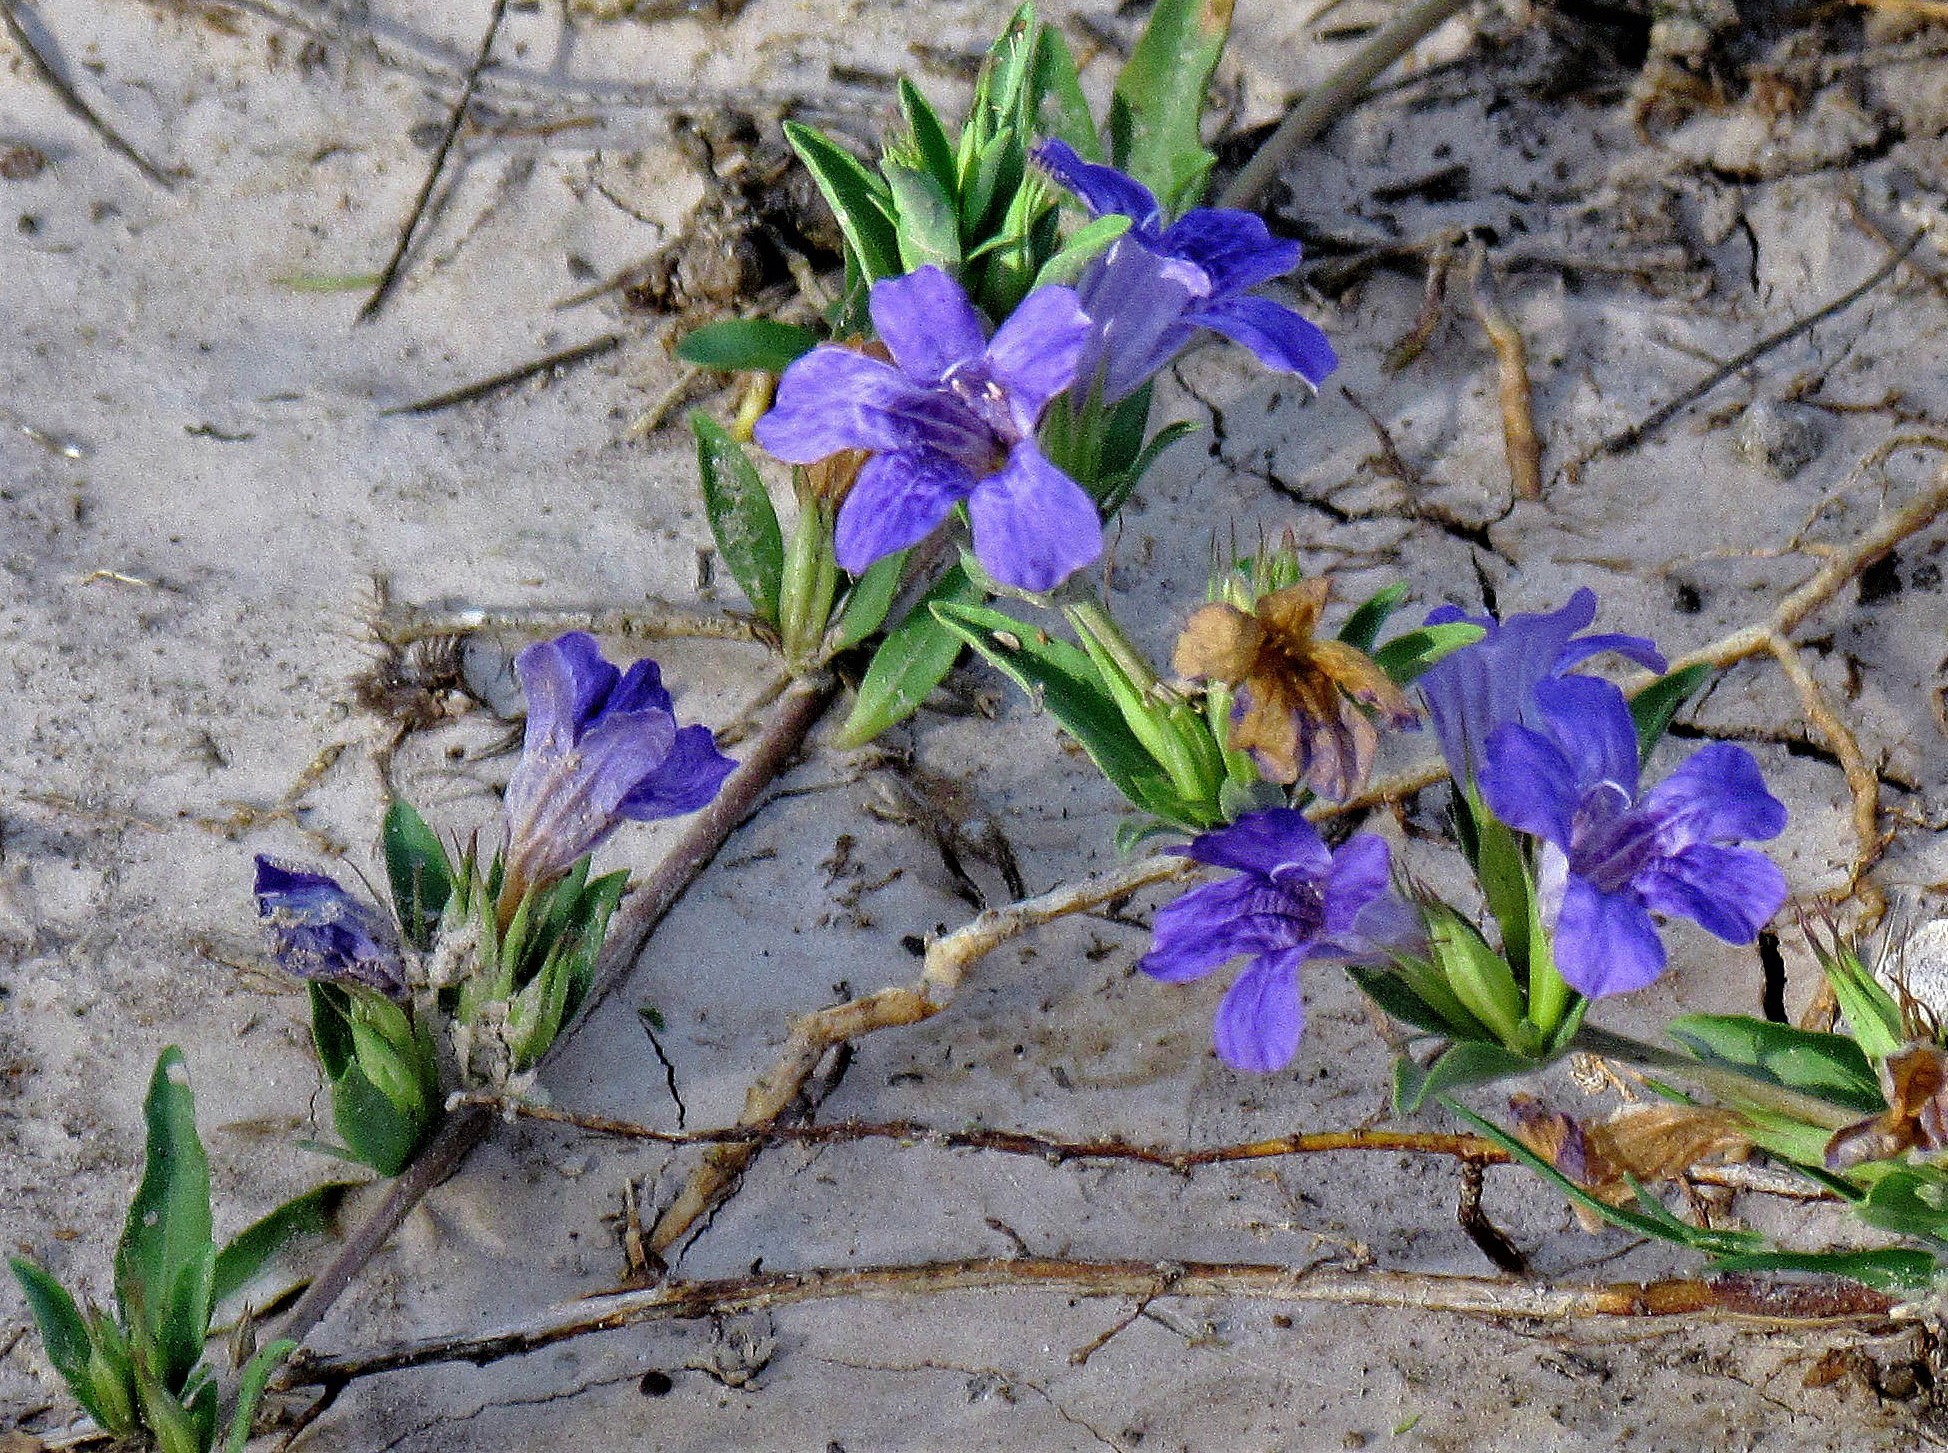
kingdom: Plantae
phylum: Tracheophyta
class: Magnoliopsida
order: Lamiales
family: Acanthaceae
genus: Dyschoriste
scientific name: Dyschoriste humilis
